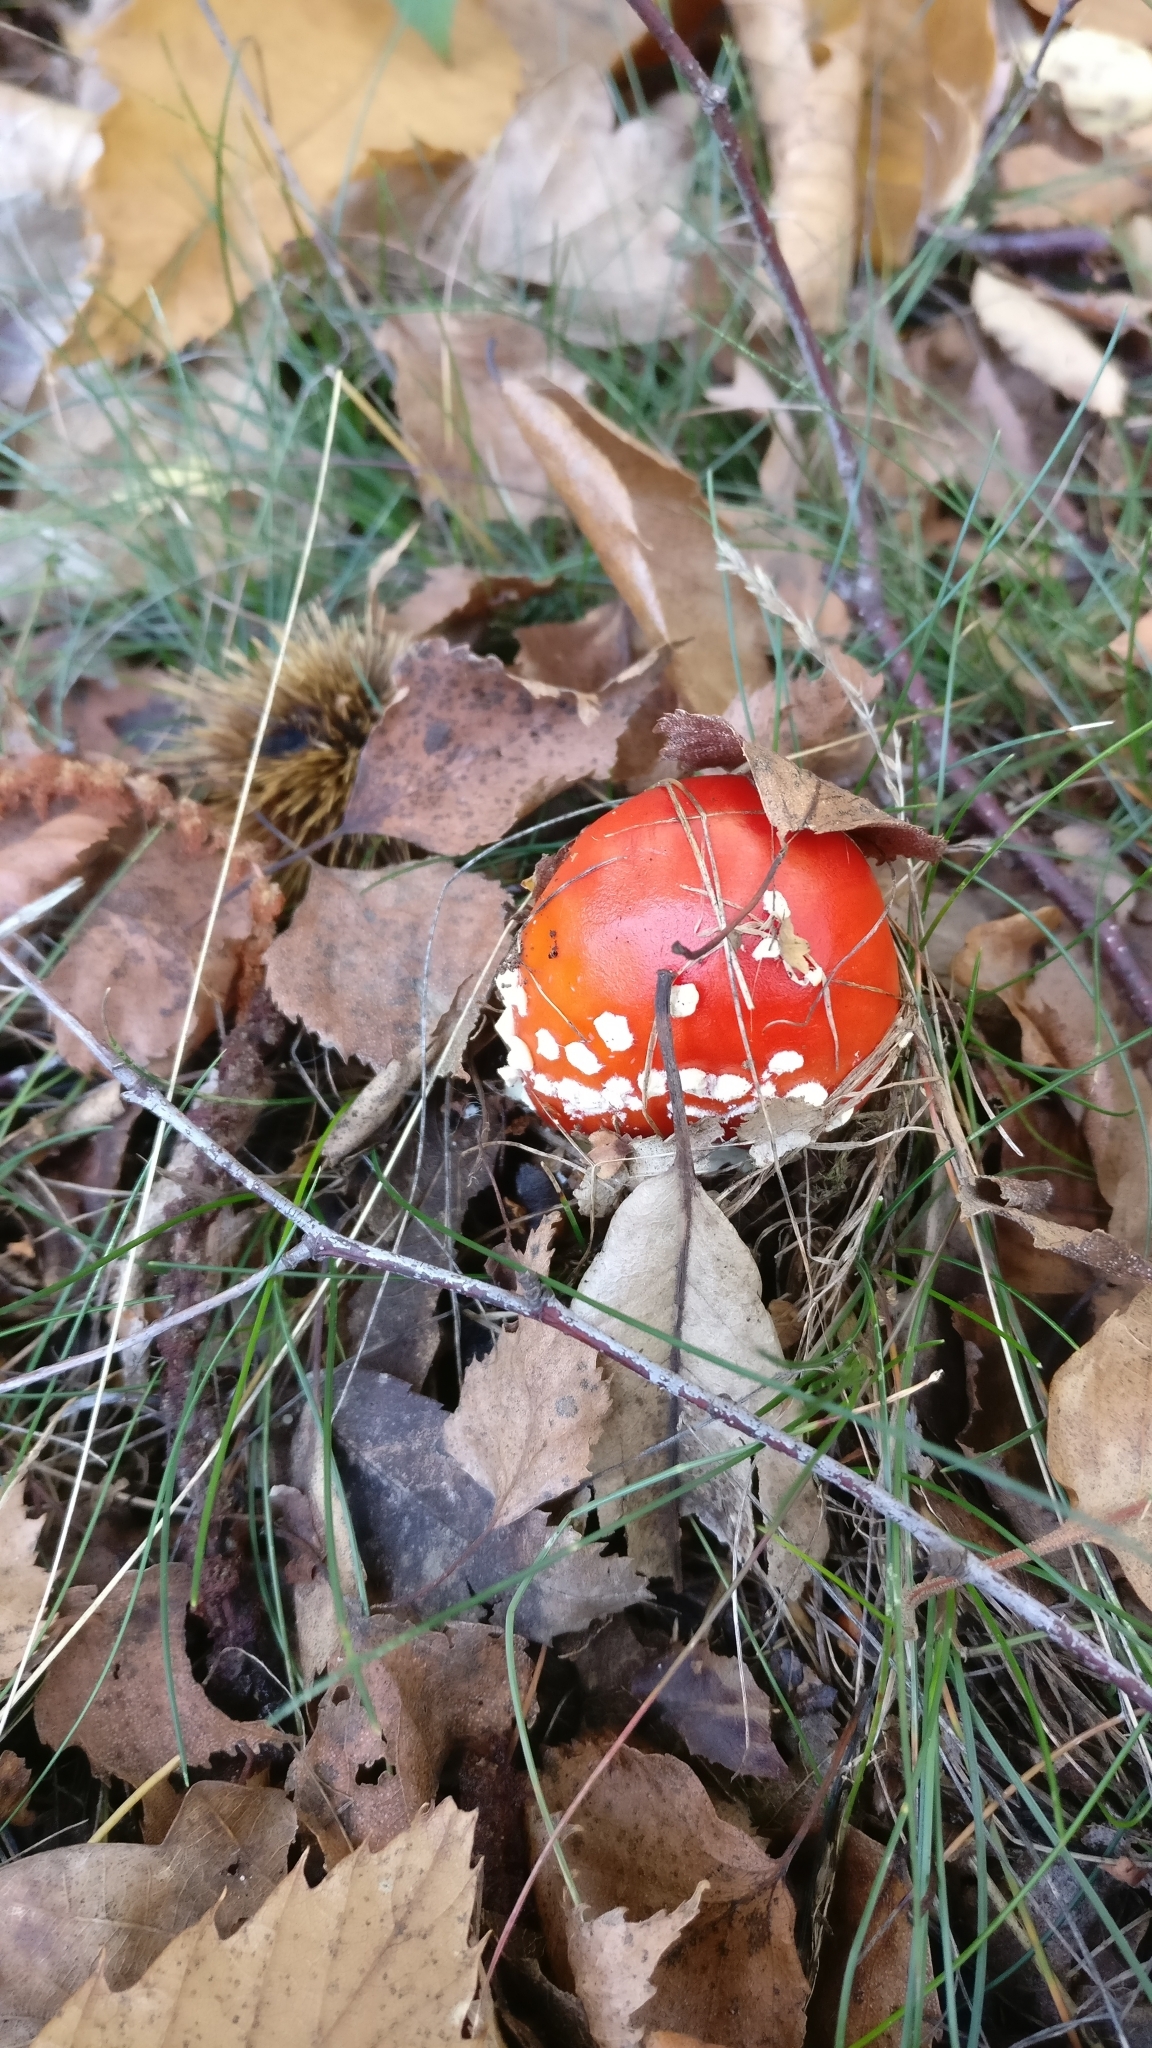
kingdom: Fungi
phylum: Basidiomycota
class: Agaricomycetes
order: Agaricales
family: Amanitaceae
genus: Amanita
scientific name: Amanita muscaria
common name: Fly agaric
